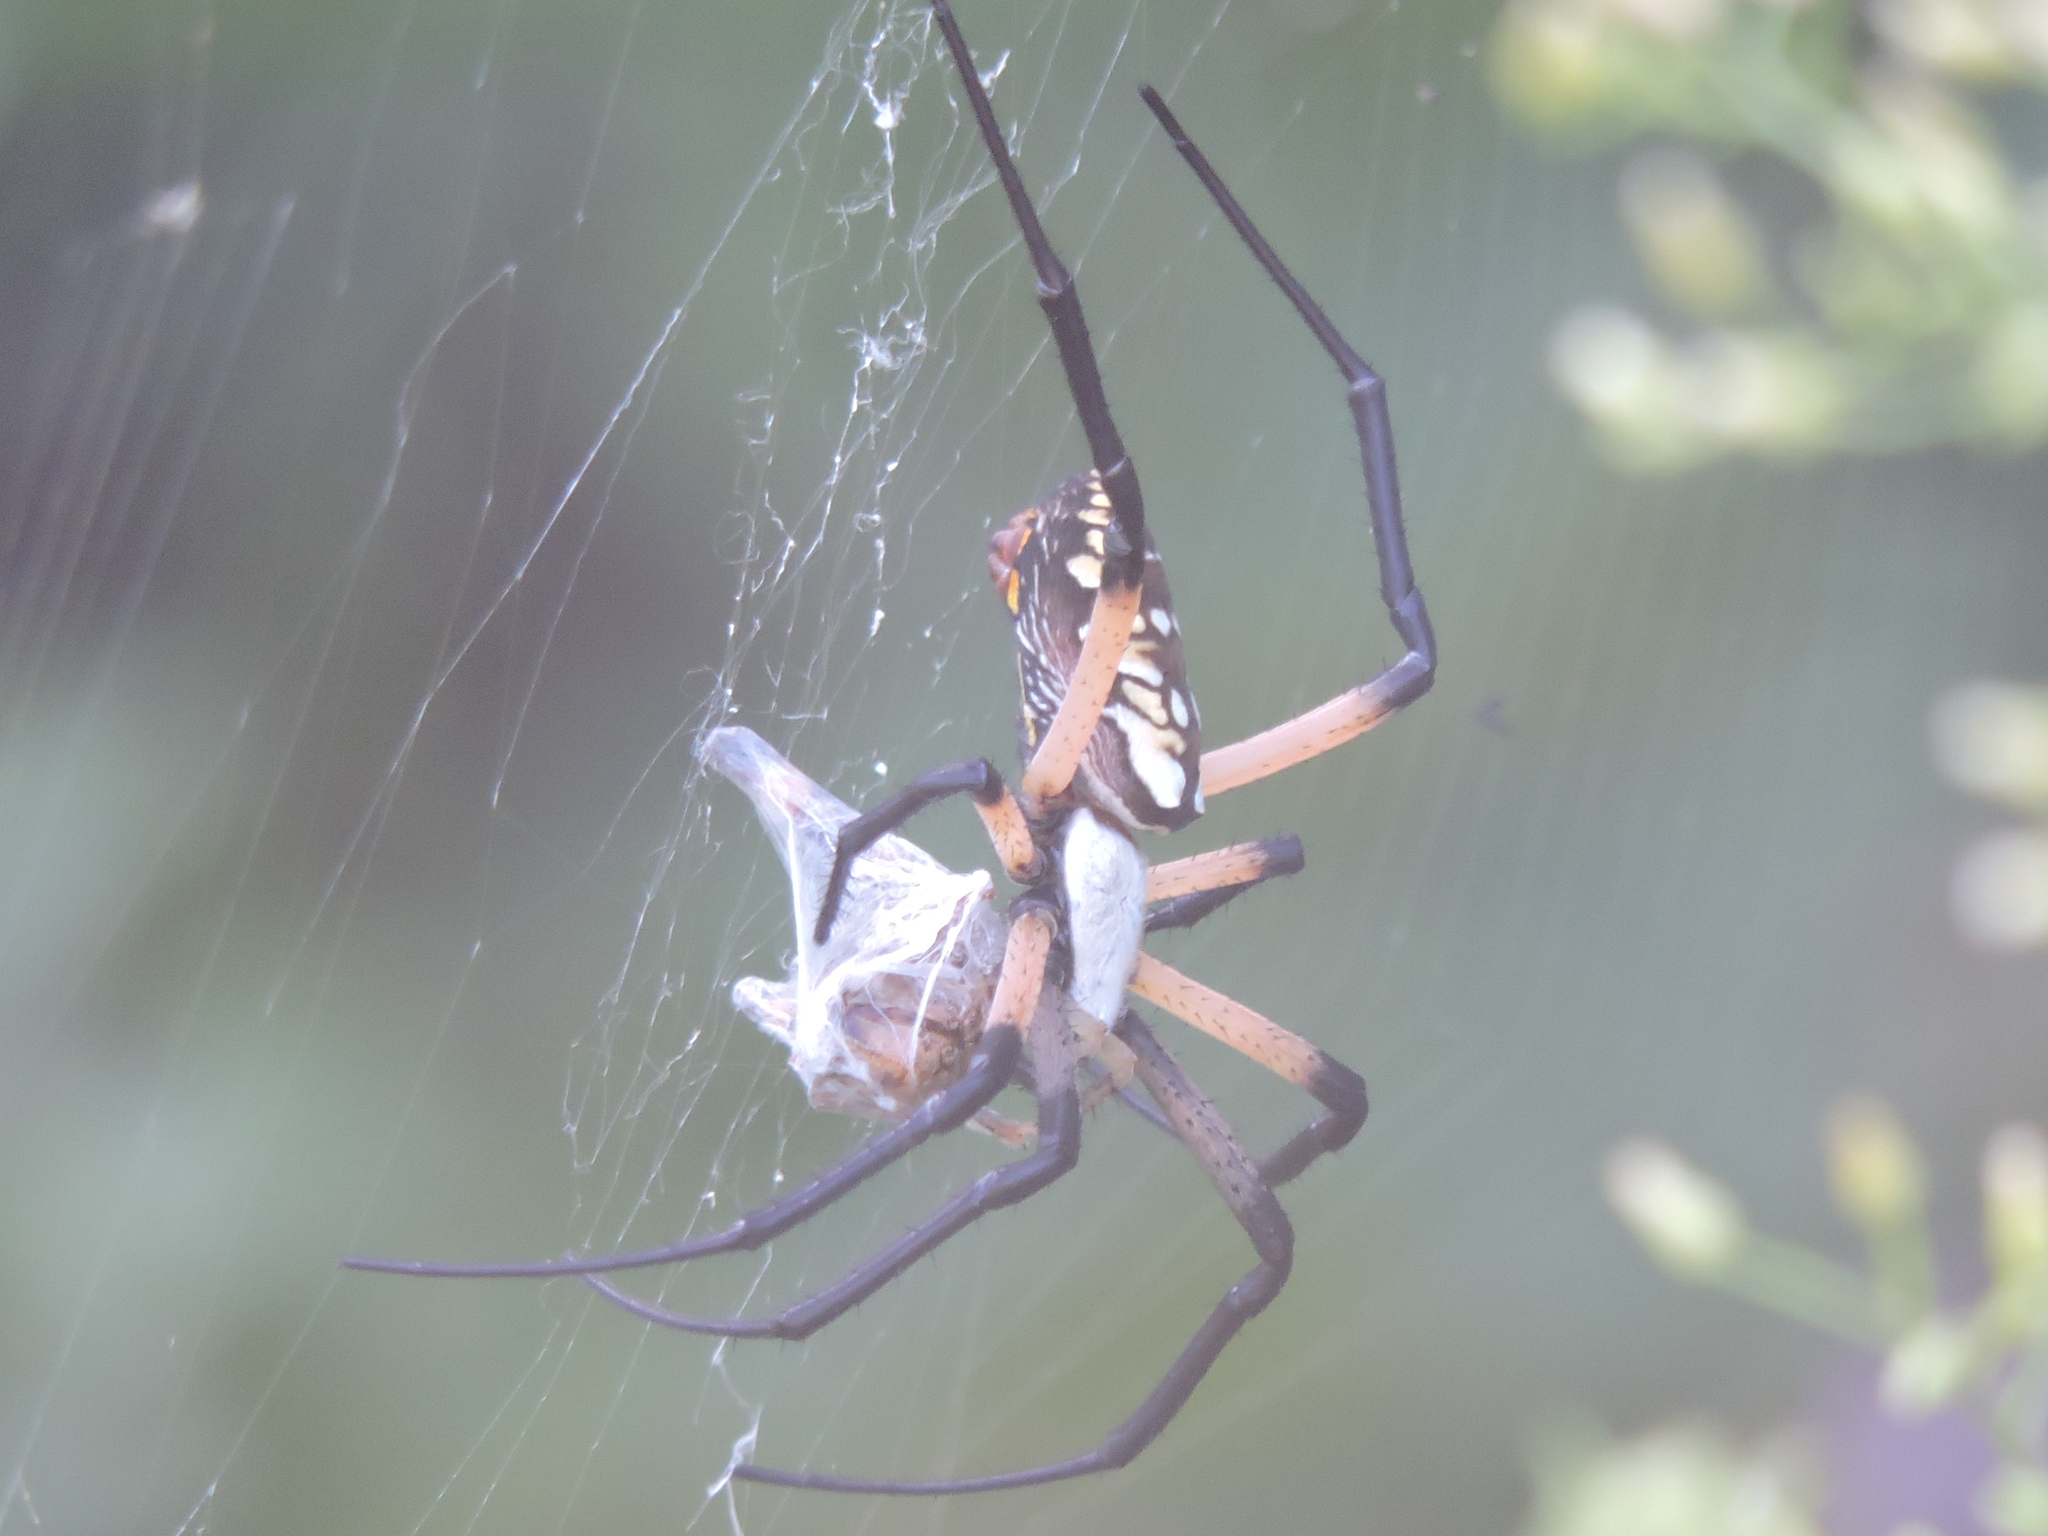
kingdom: Animalia
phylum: Arthropoda
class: Arachnida
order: Araneae
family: Araneidae
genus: Argiope
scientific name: Argiope aurantia
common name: Orb weavers
